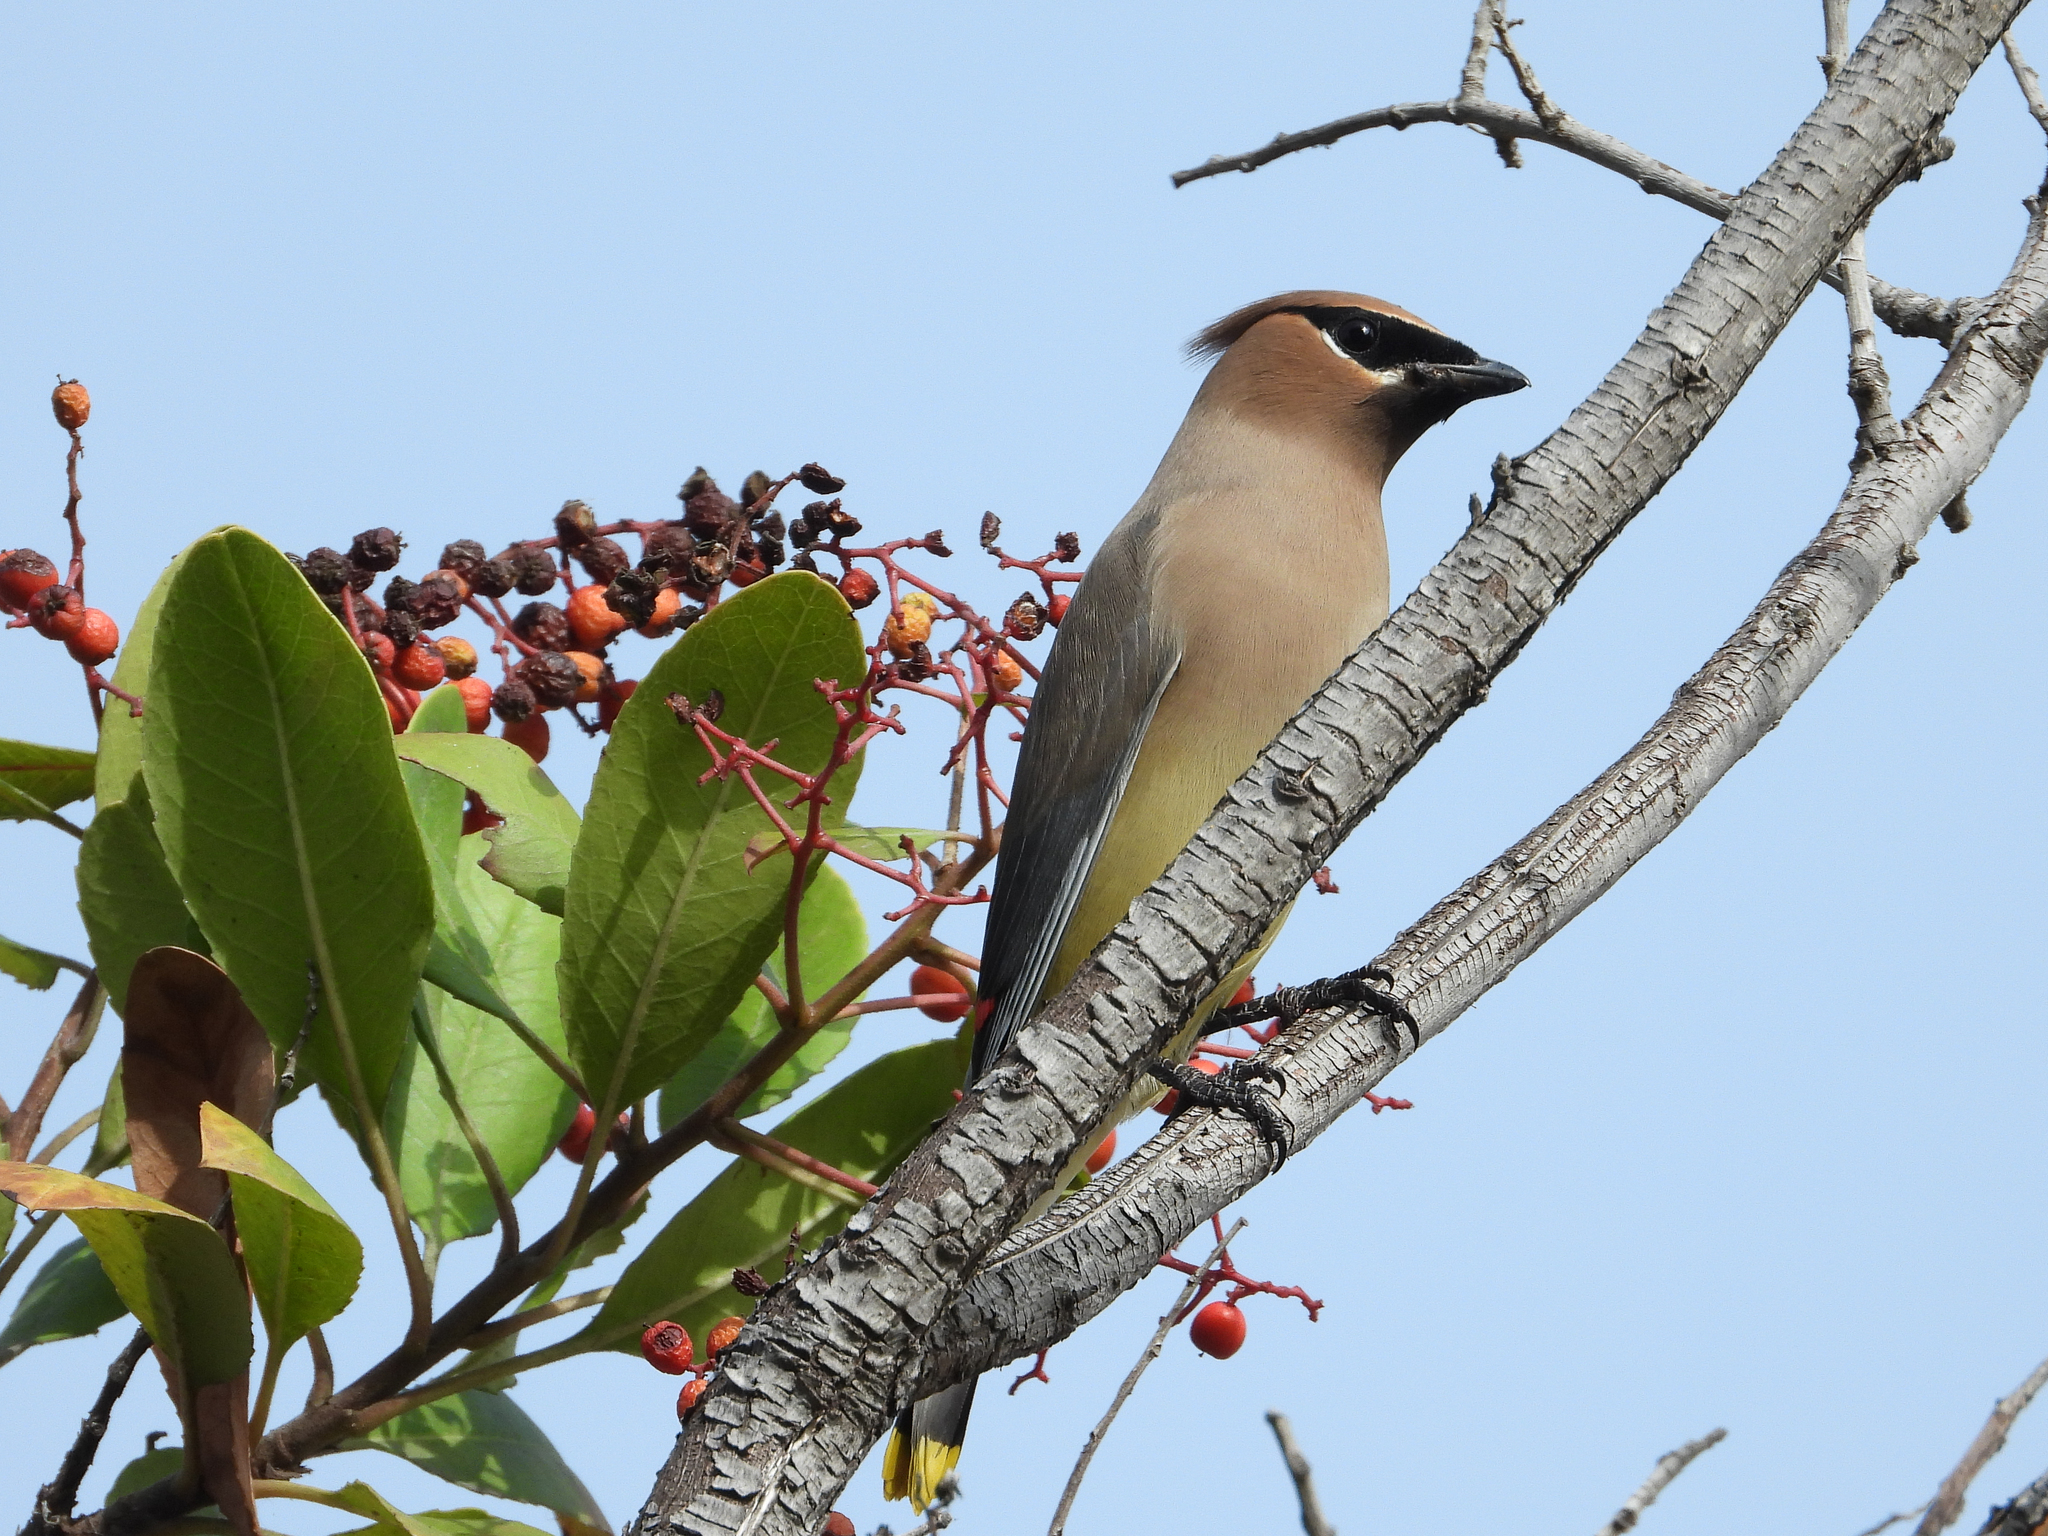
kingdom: Animalia
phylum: Chordata
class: Aves
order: Passeriformes
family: Bombycillidae
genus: Bombycilla
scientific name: Bombycilla cedrorum
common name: Cedar waxwing
